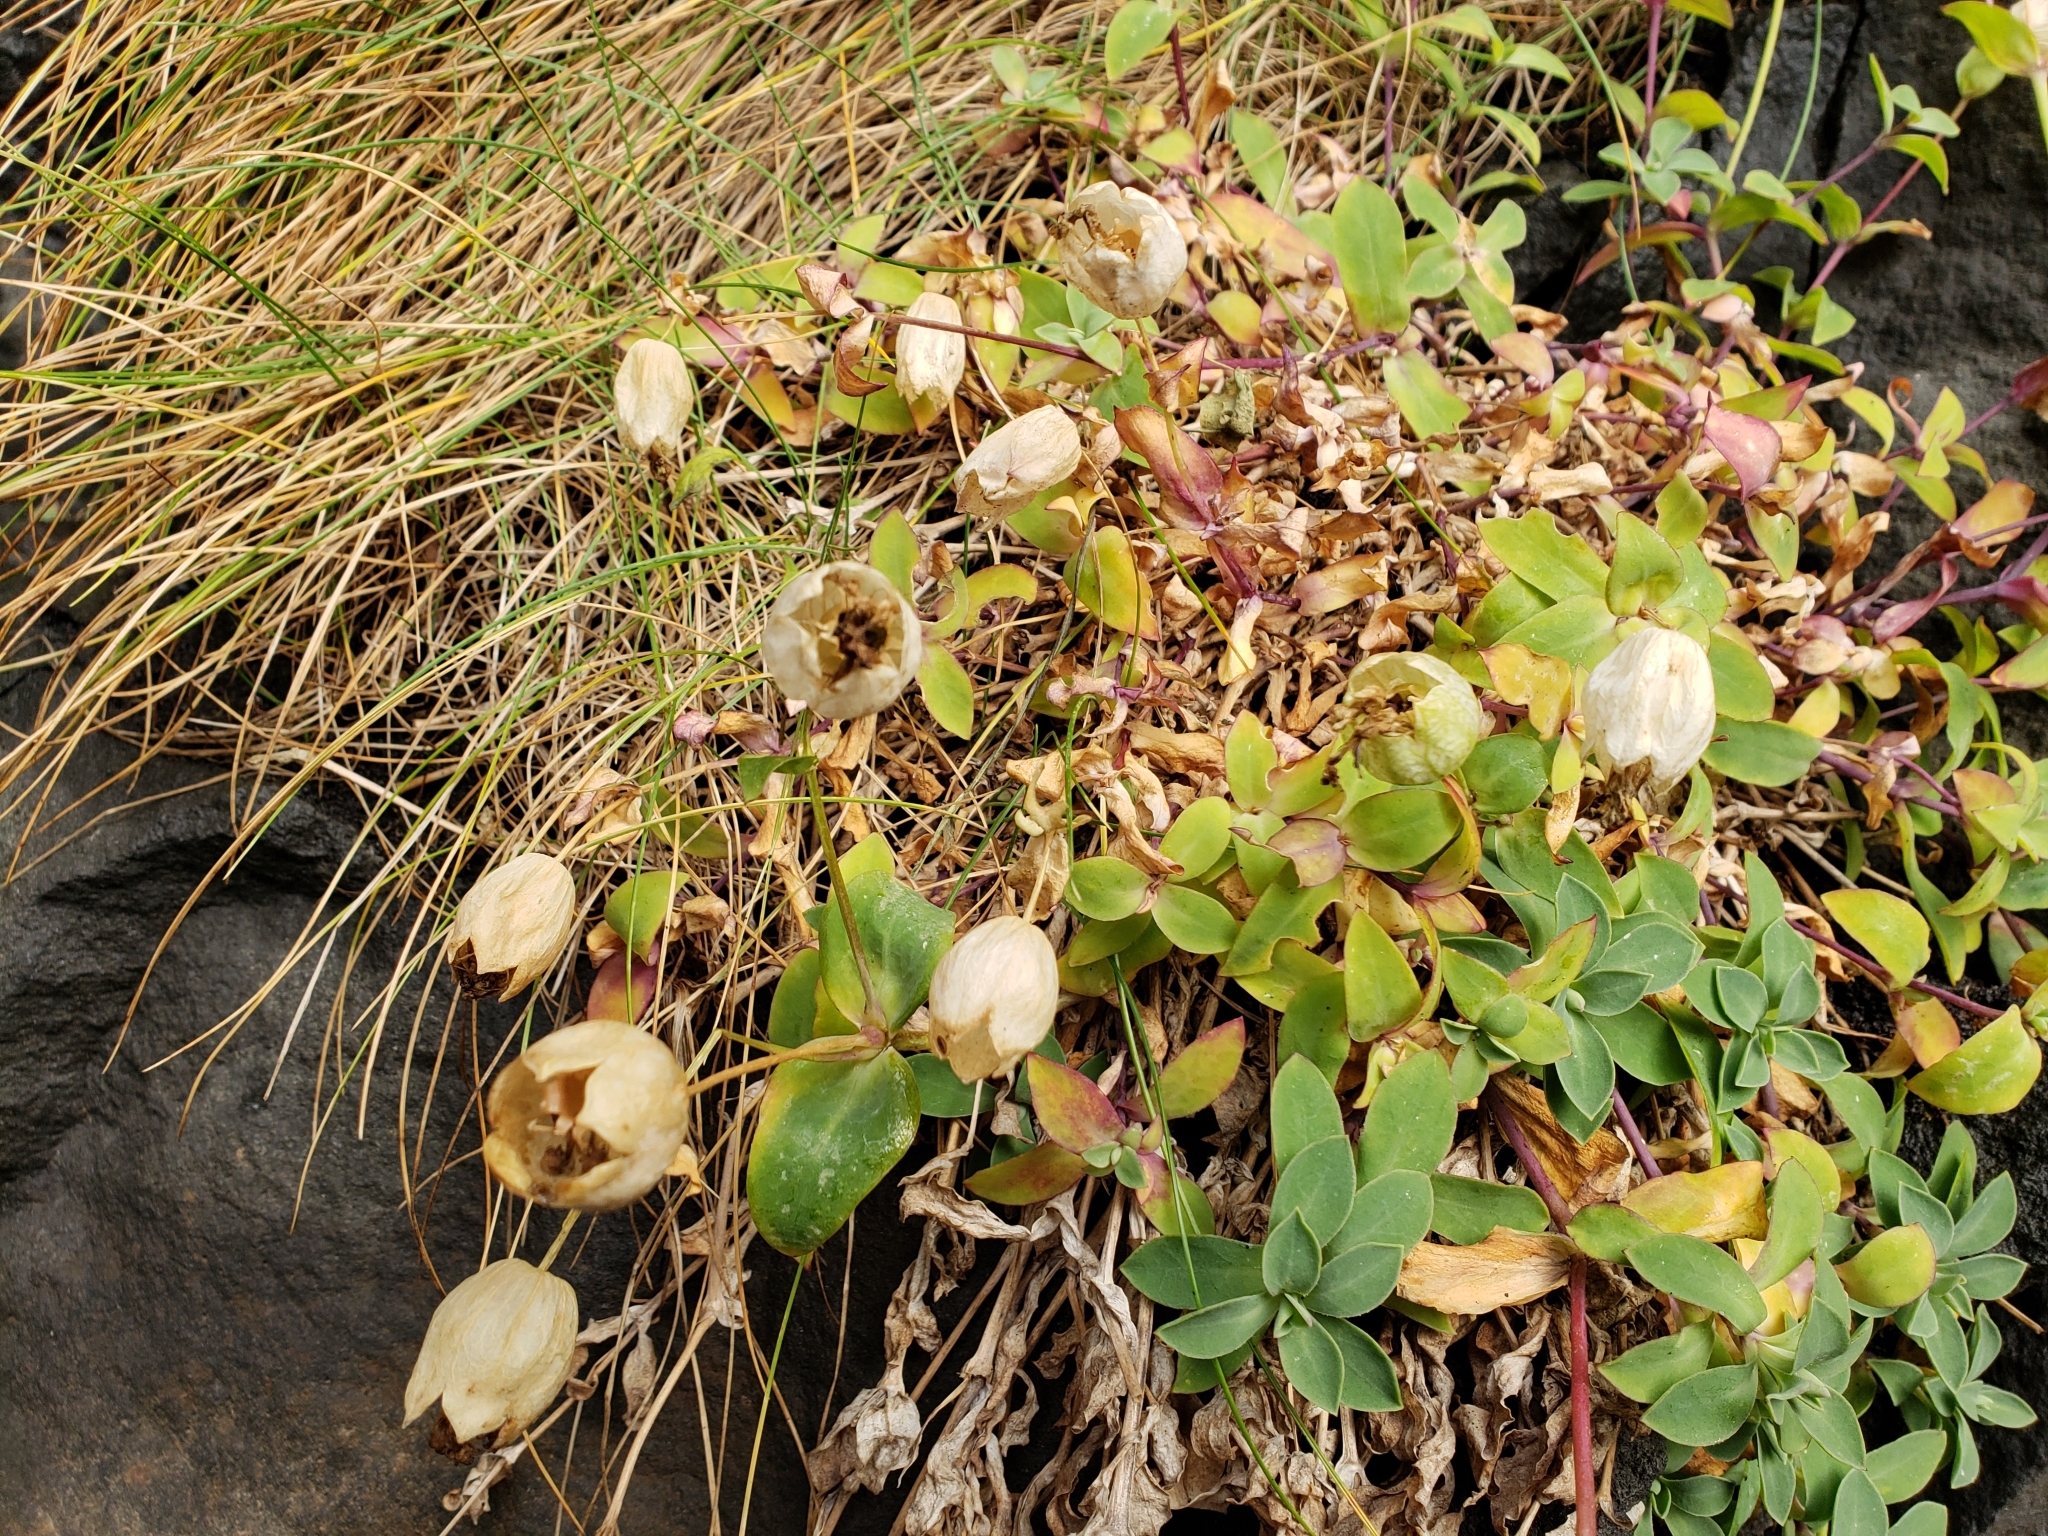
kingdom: Plantae
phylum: Tracheophyta
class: Magnoliopsida
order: Caryophyllales
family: Caryophyllaceae
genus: Silene
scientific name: Silene uniflora
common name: Sea campion
